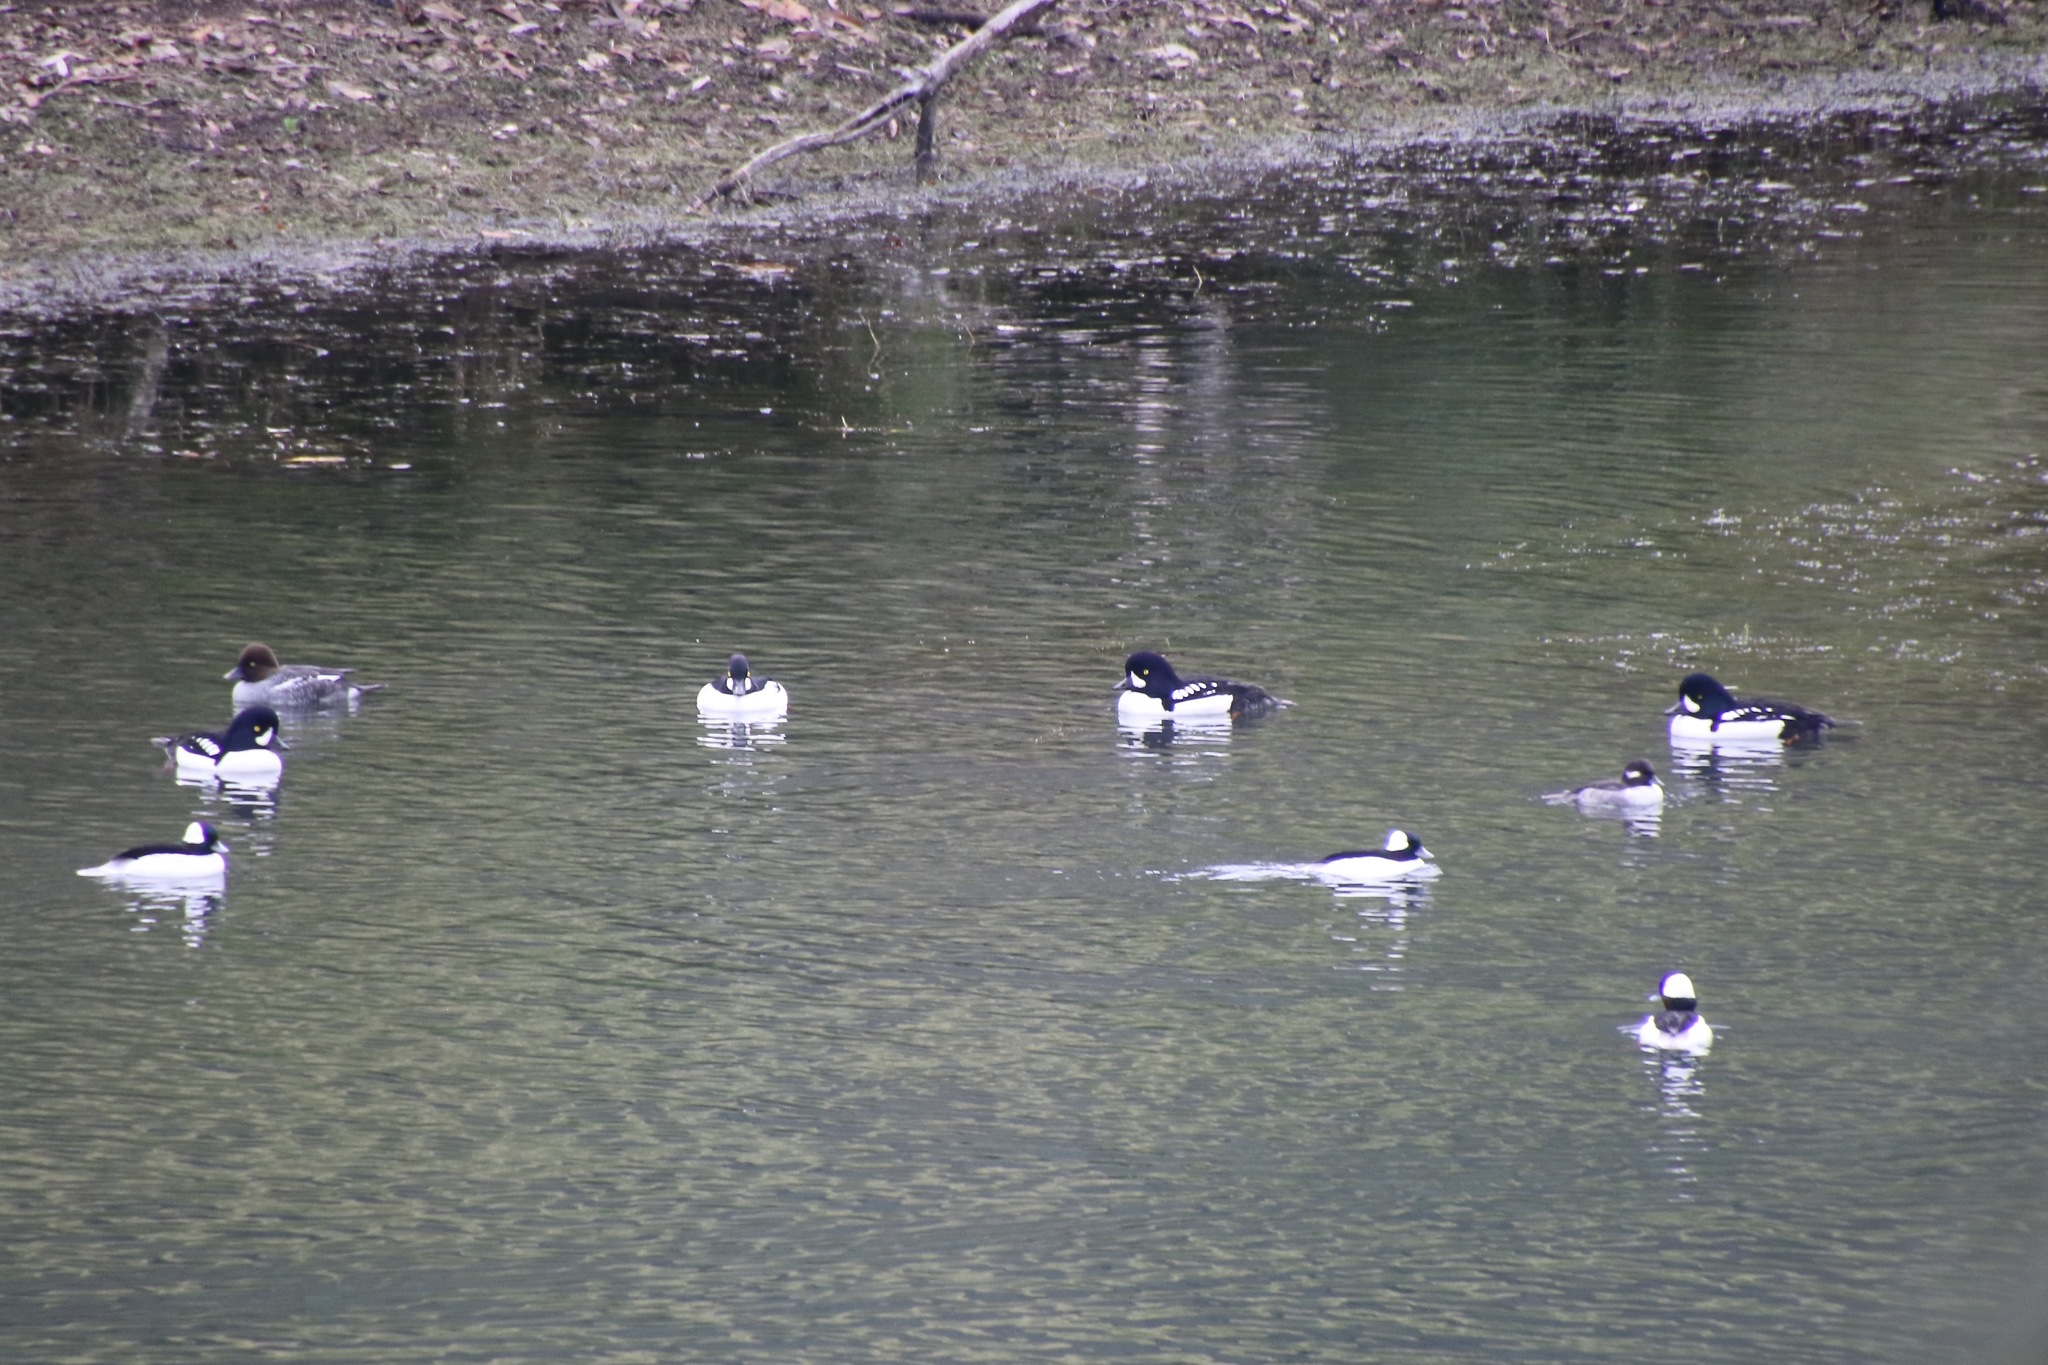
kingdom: Animalia
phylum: Chordata
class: Aves
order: Anseriformes
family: Anatidae
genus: Bucephala
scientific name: Bucephala islandica
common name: Barrow's goldeneye
